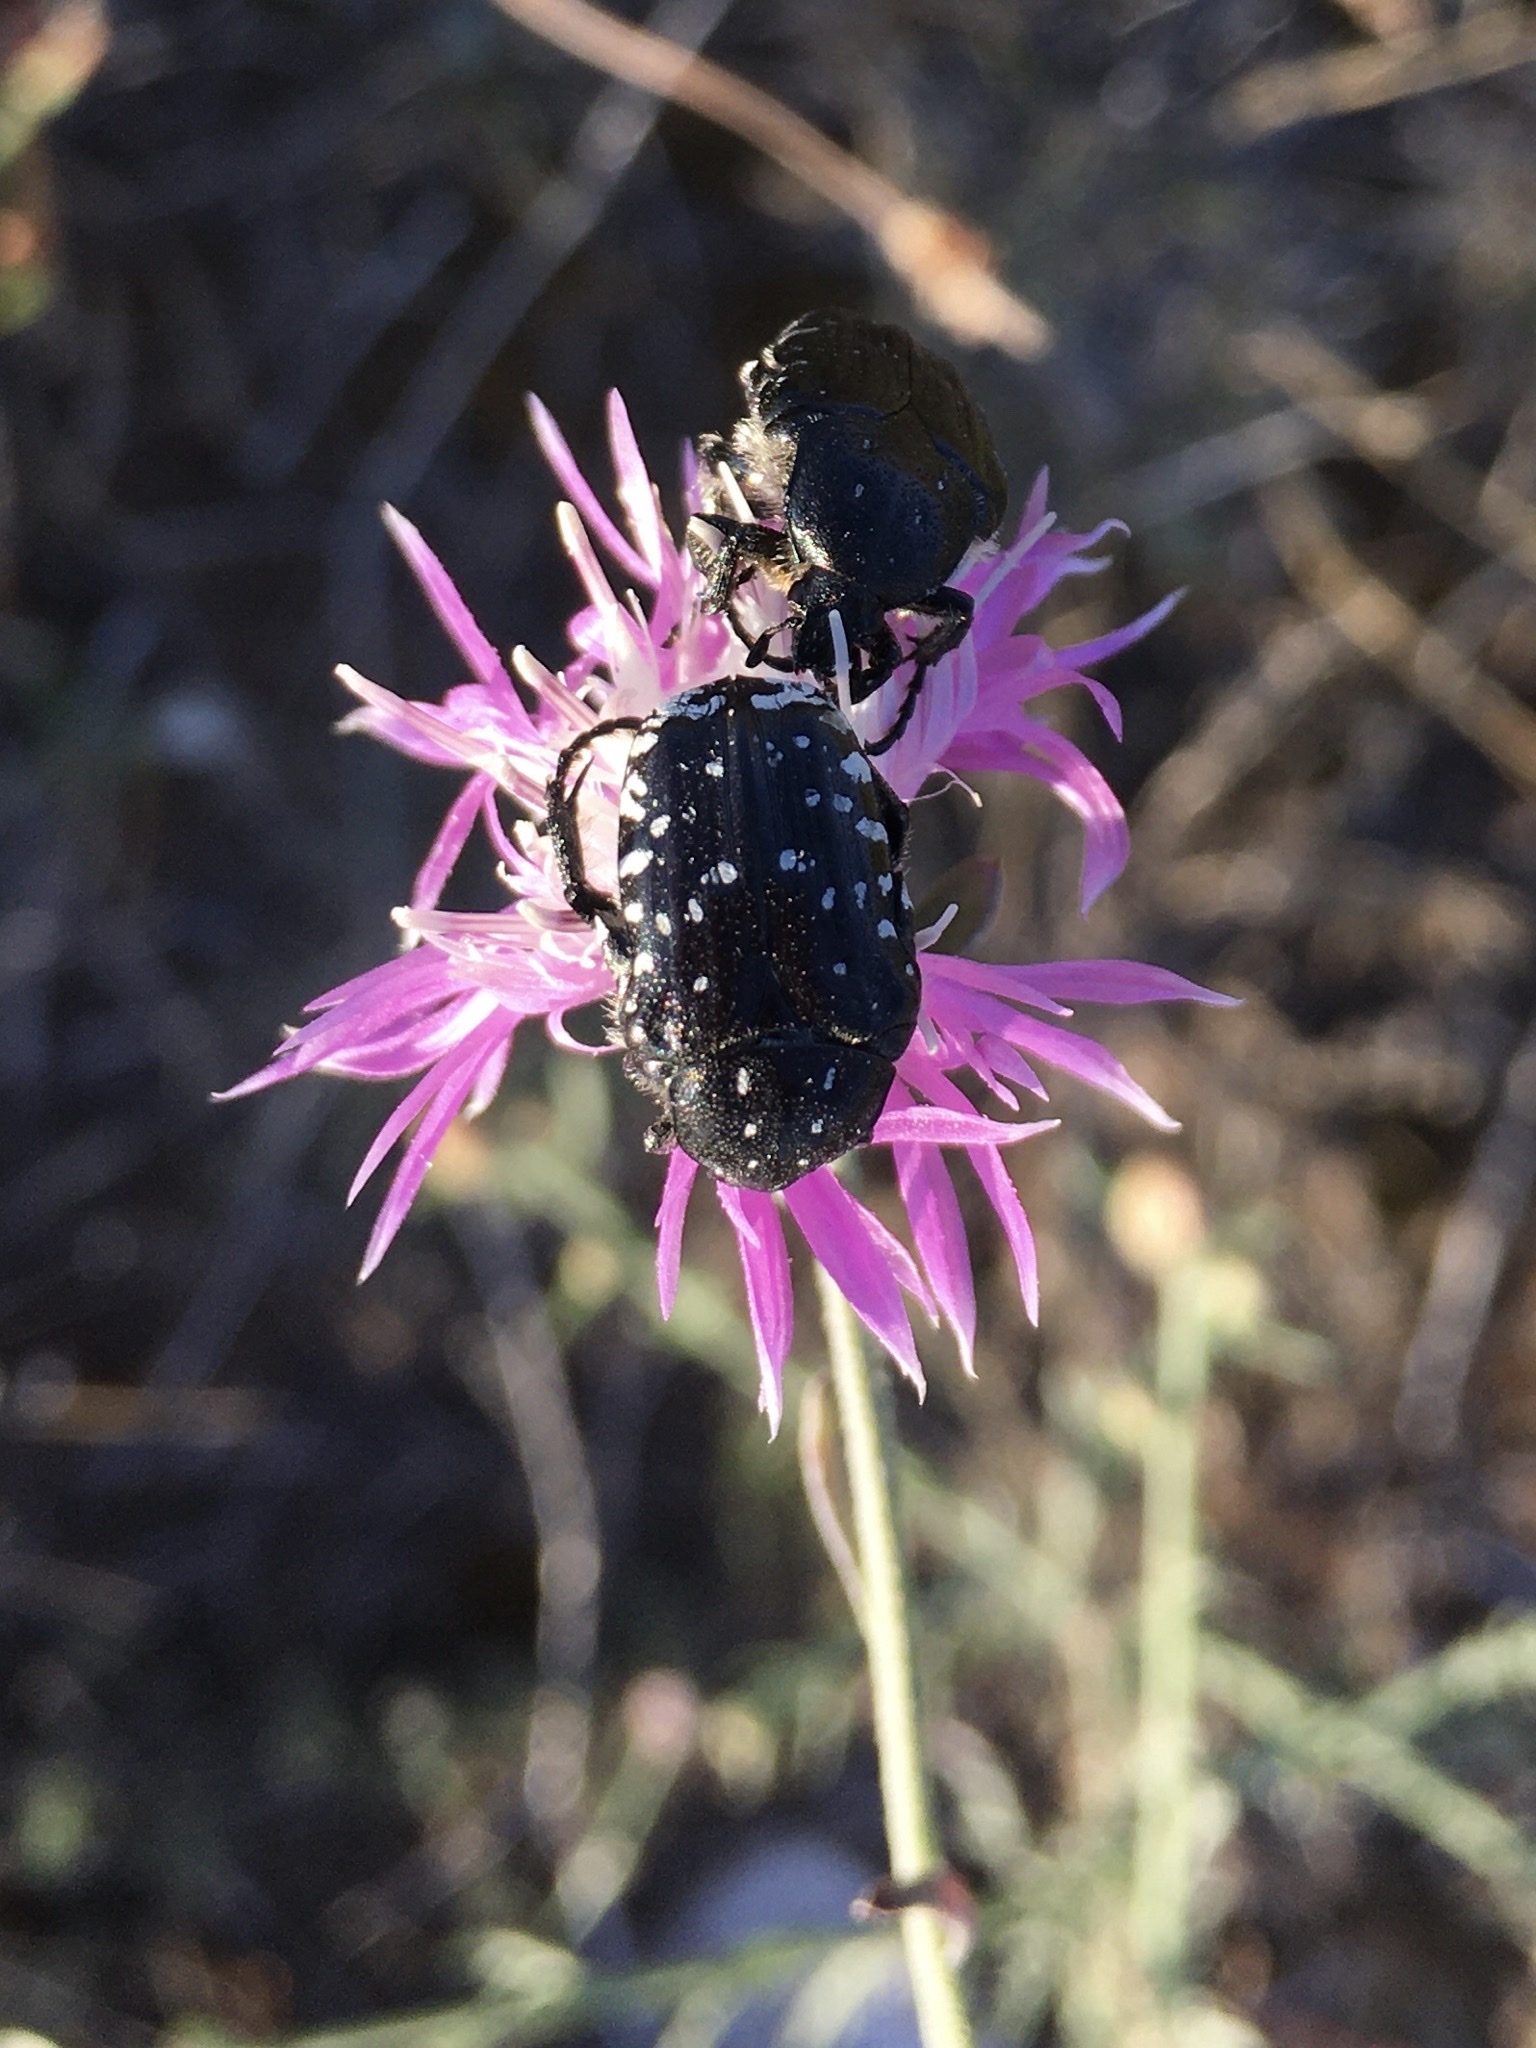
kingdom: Animalia
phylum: Arthropoda
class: Insecta
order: Coleoptera
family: Scarabaeidae
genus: Oxythyrea
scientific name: Oxythyrea funesta
